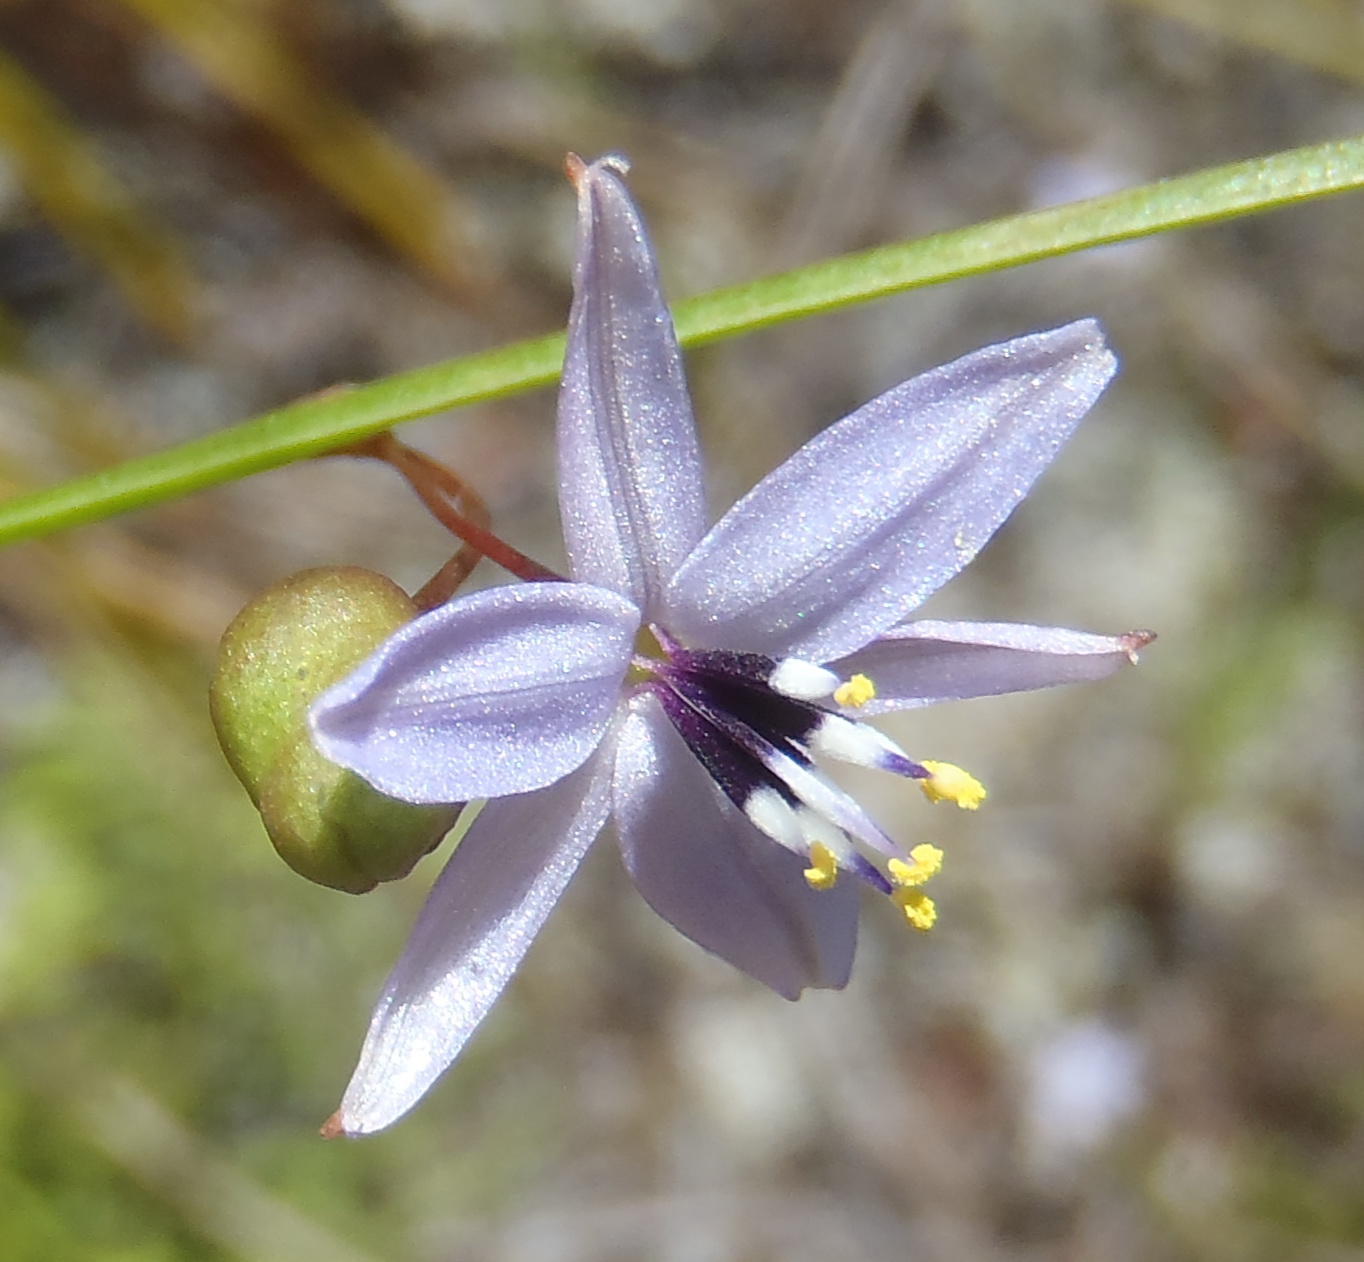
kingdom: Plantae
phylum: Tracheophyta
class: Liliopsida
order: Asparagales
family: Asphodelaceae
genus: Caesia
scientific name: Caesia contorta
